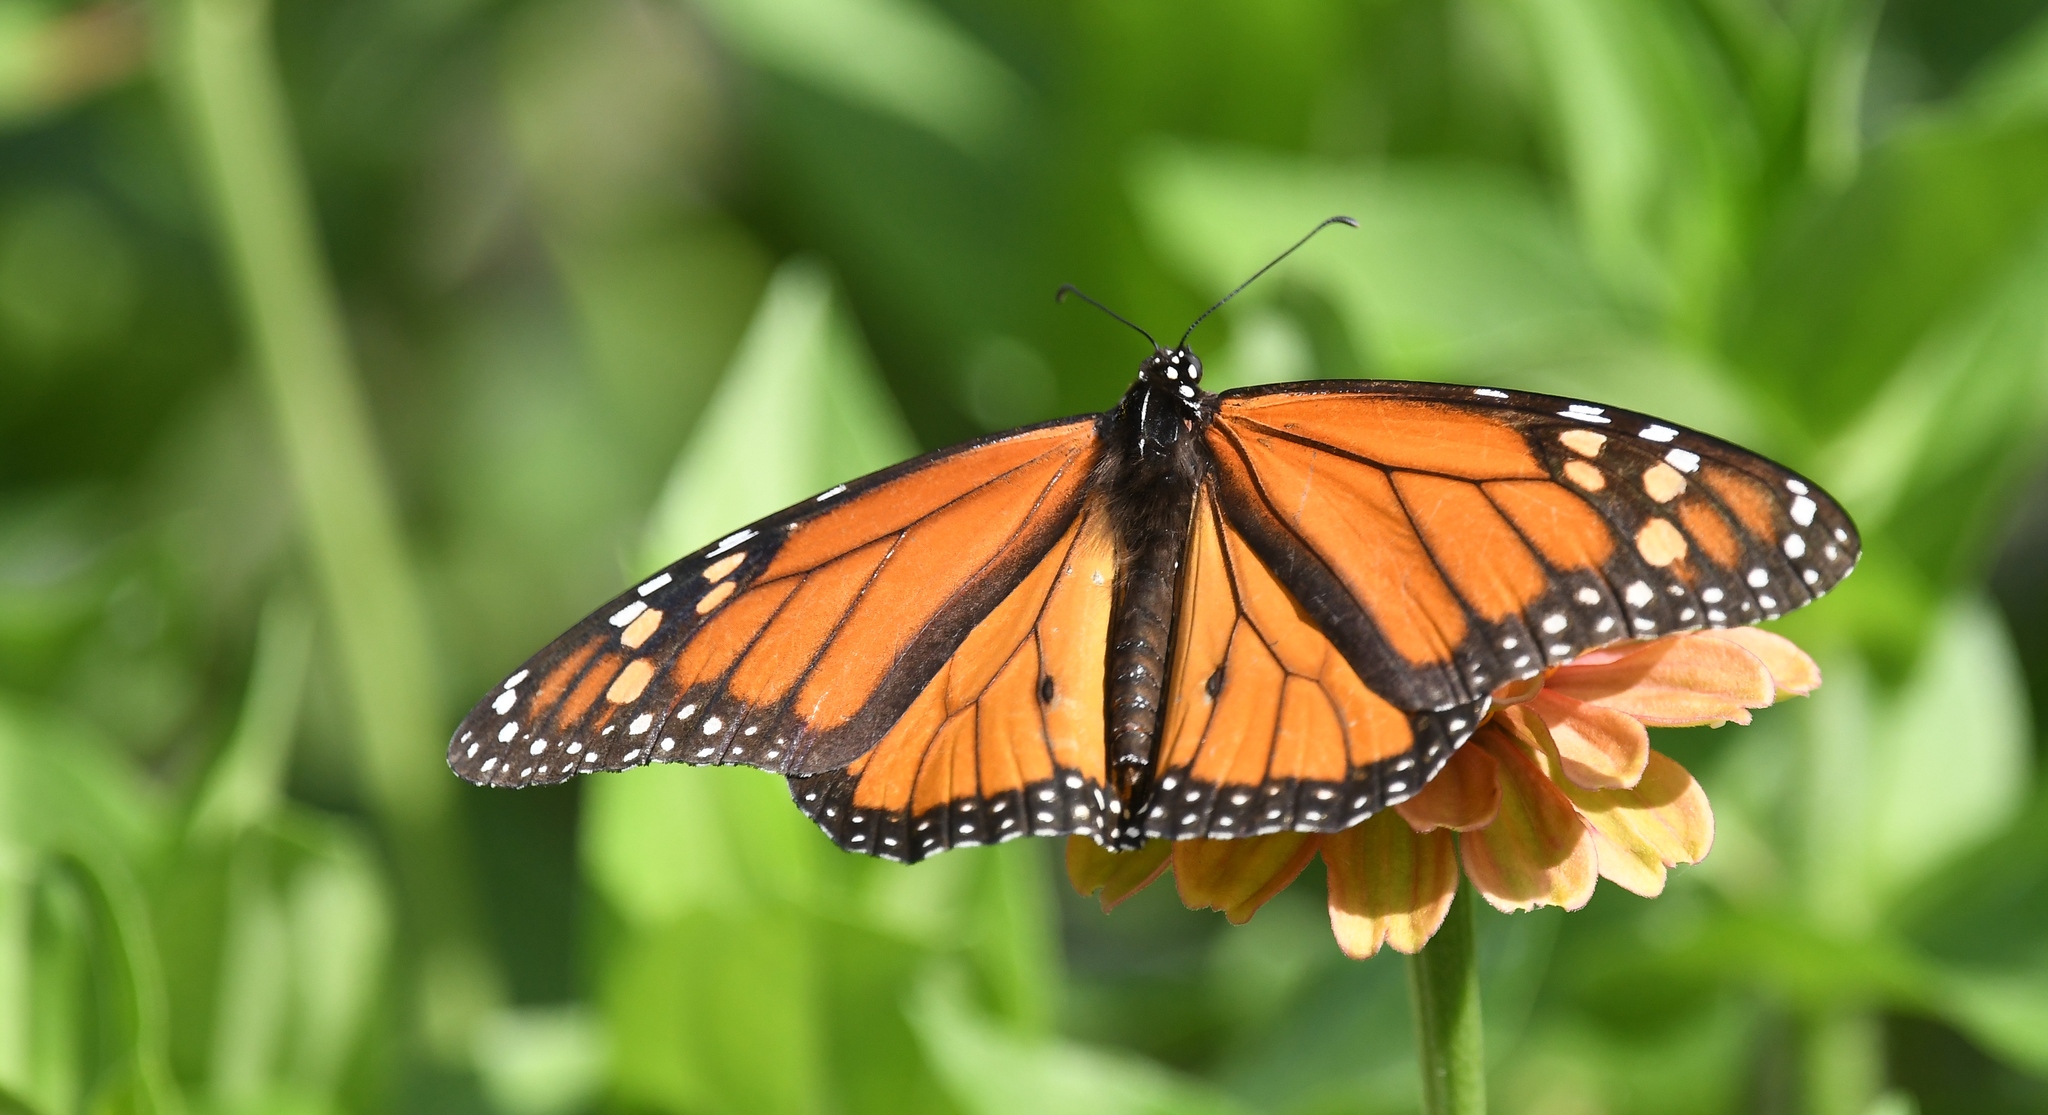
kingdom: Animalia
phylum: Arthropoda
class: Insecta
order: Lepidoptera
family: Nymphalidae
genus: Danaus
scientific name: Danaus plexippus
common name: Monarch
